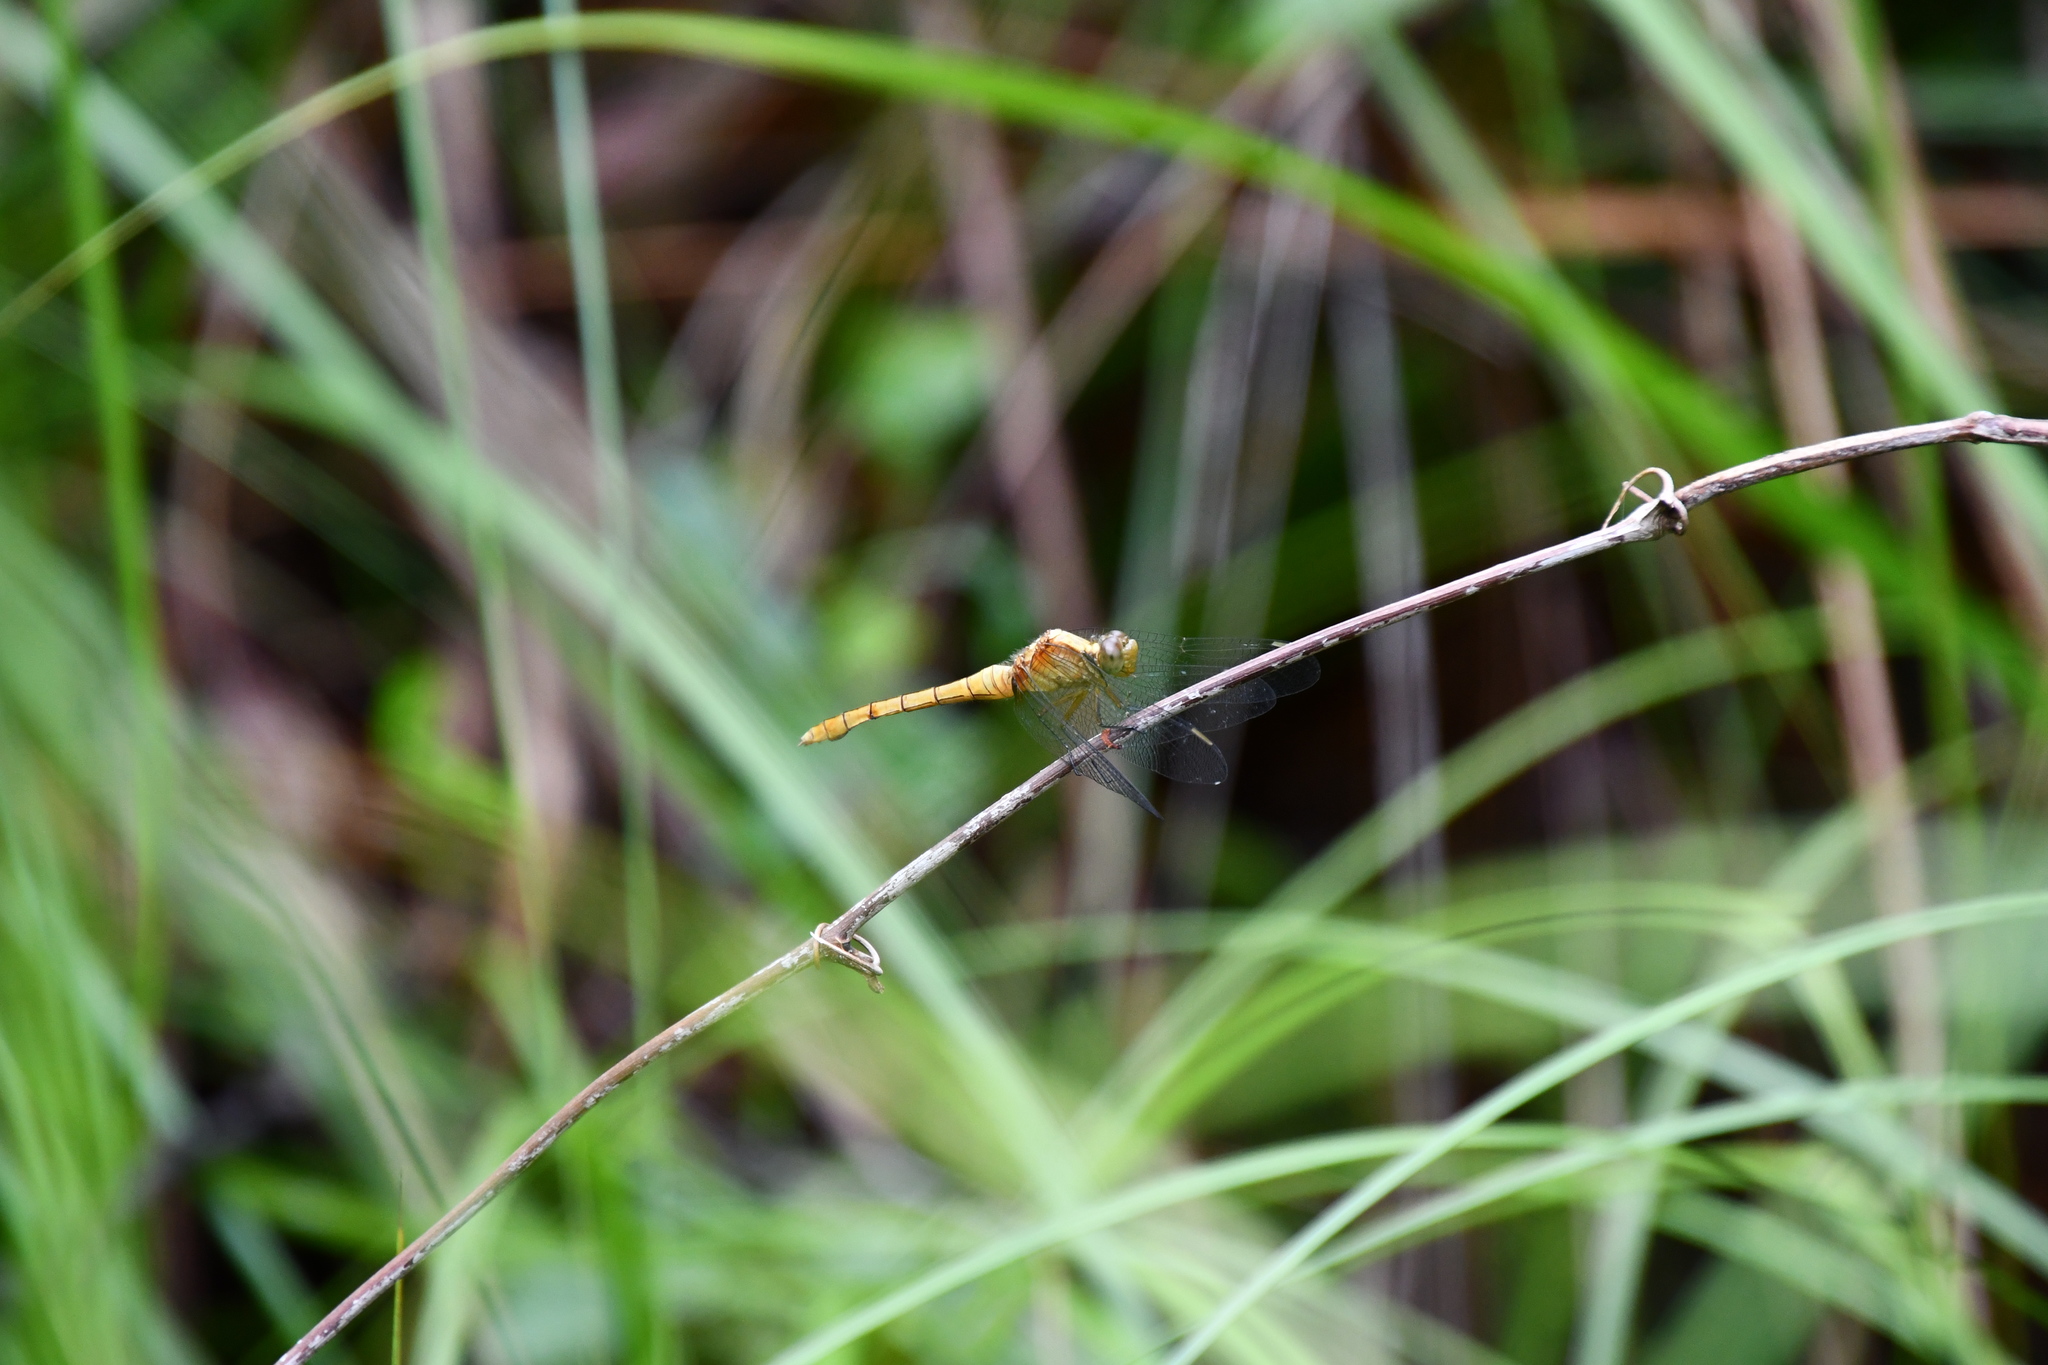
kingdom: Animalia
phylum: Arthropoda
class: Insecta
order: Odonata
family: Libellulidae
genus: Orthetrum
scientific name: Orthetrum villosovittatum
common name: Firery skimmer
